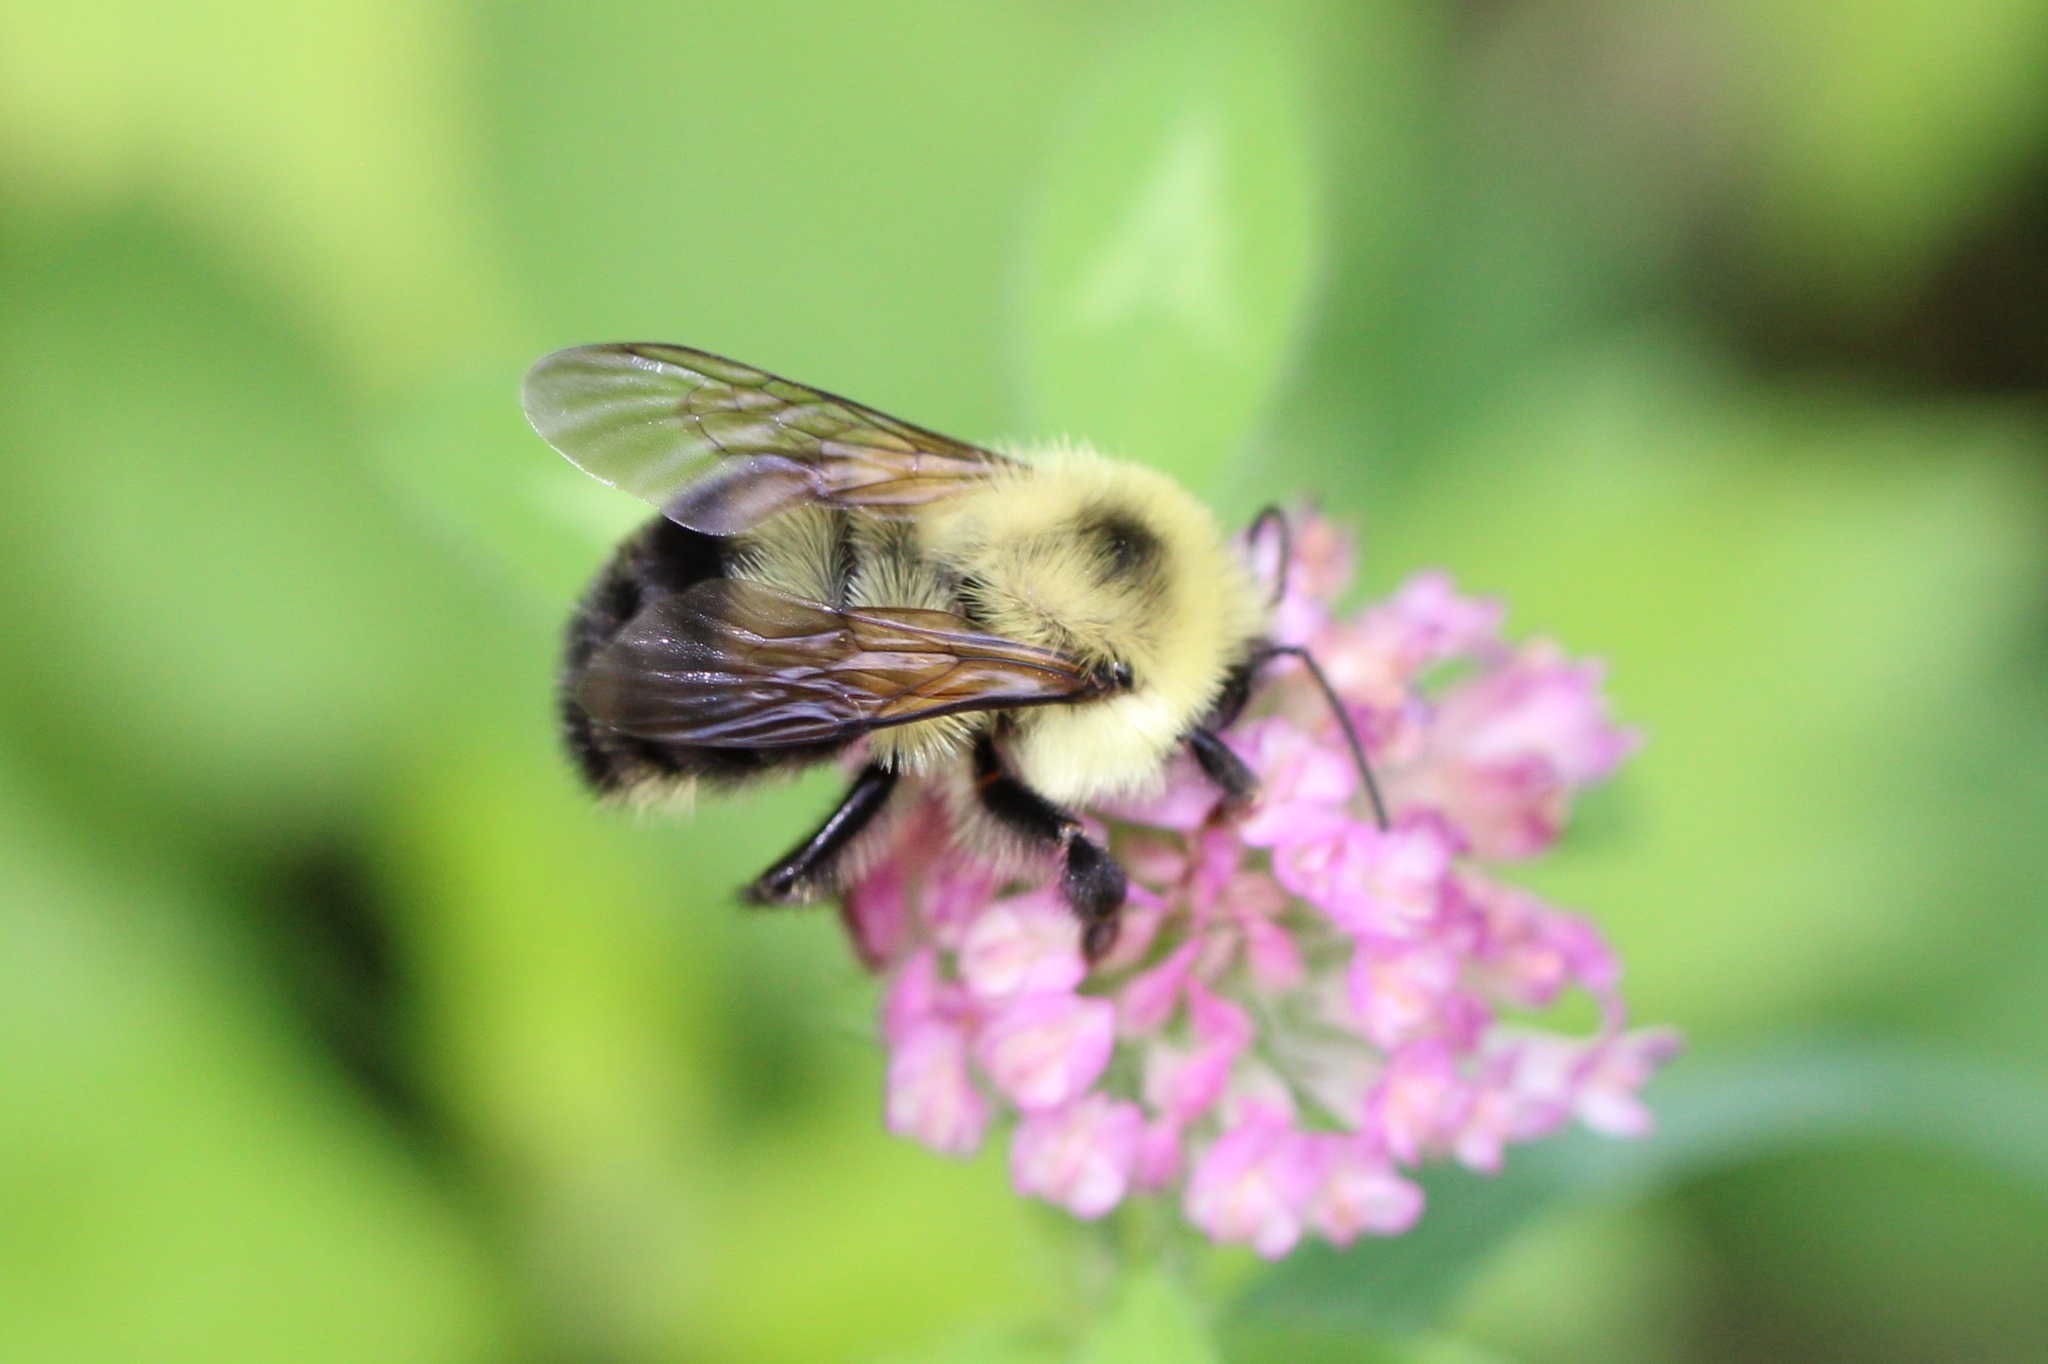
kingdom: Animalia
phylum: Arthropoda
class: Insecta
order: Hymenoptera
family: Apidae
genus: Bombus
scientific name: Bombus bimaculatus
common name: Two-spotted bumble bee
